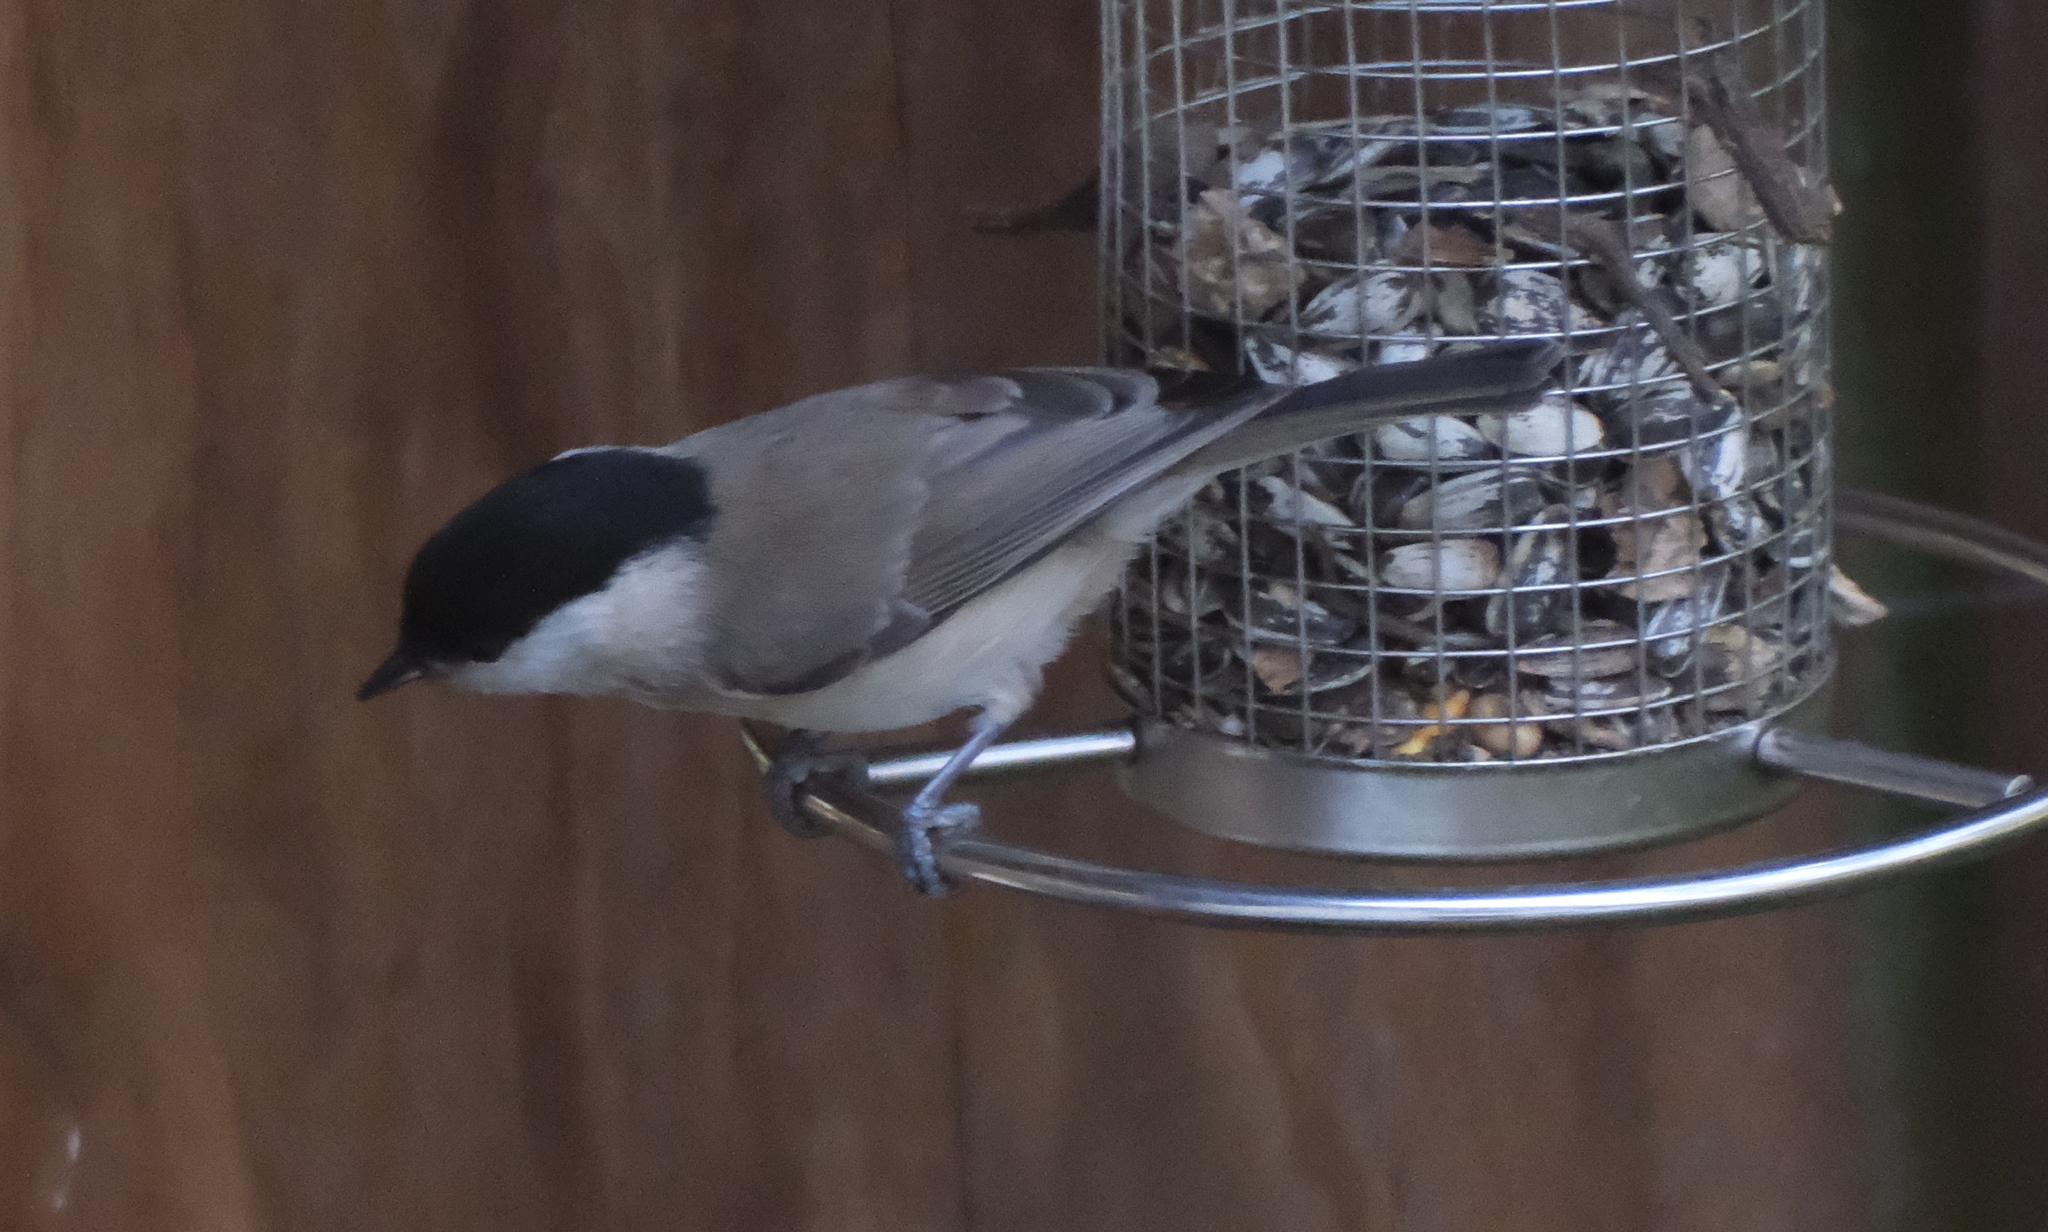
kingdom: Animalia
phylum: Chordata
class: Aves
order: Passeriformes
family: Paridae
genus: Poecile
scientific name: Poecile palustris
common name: Marsh tit
